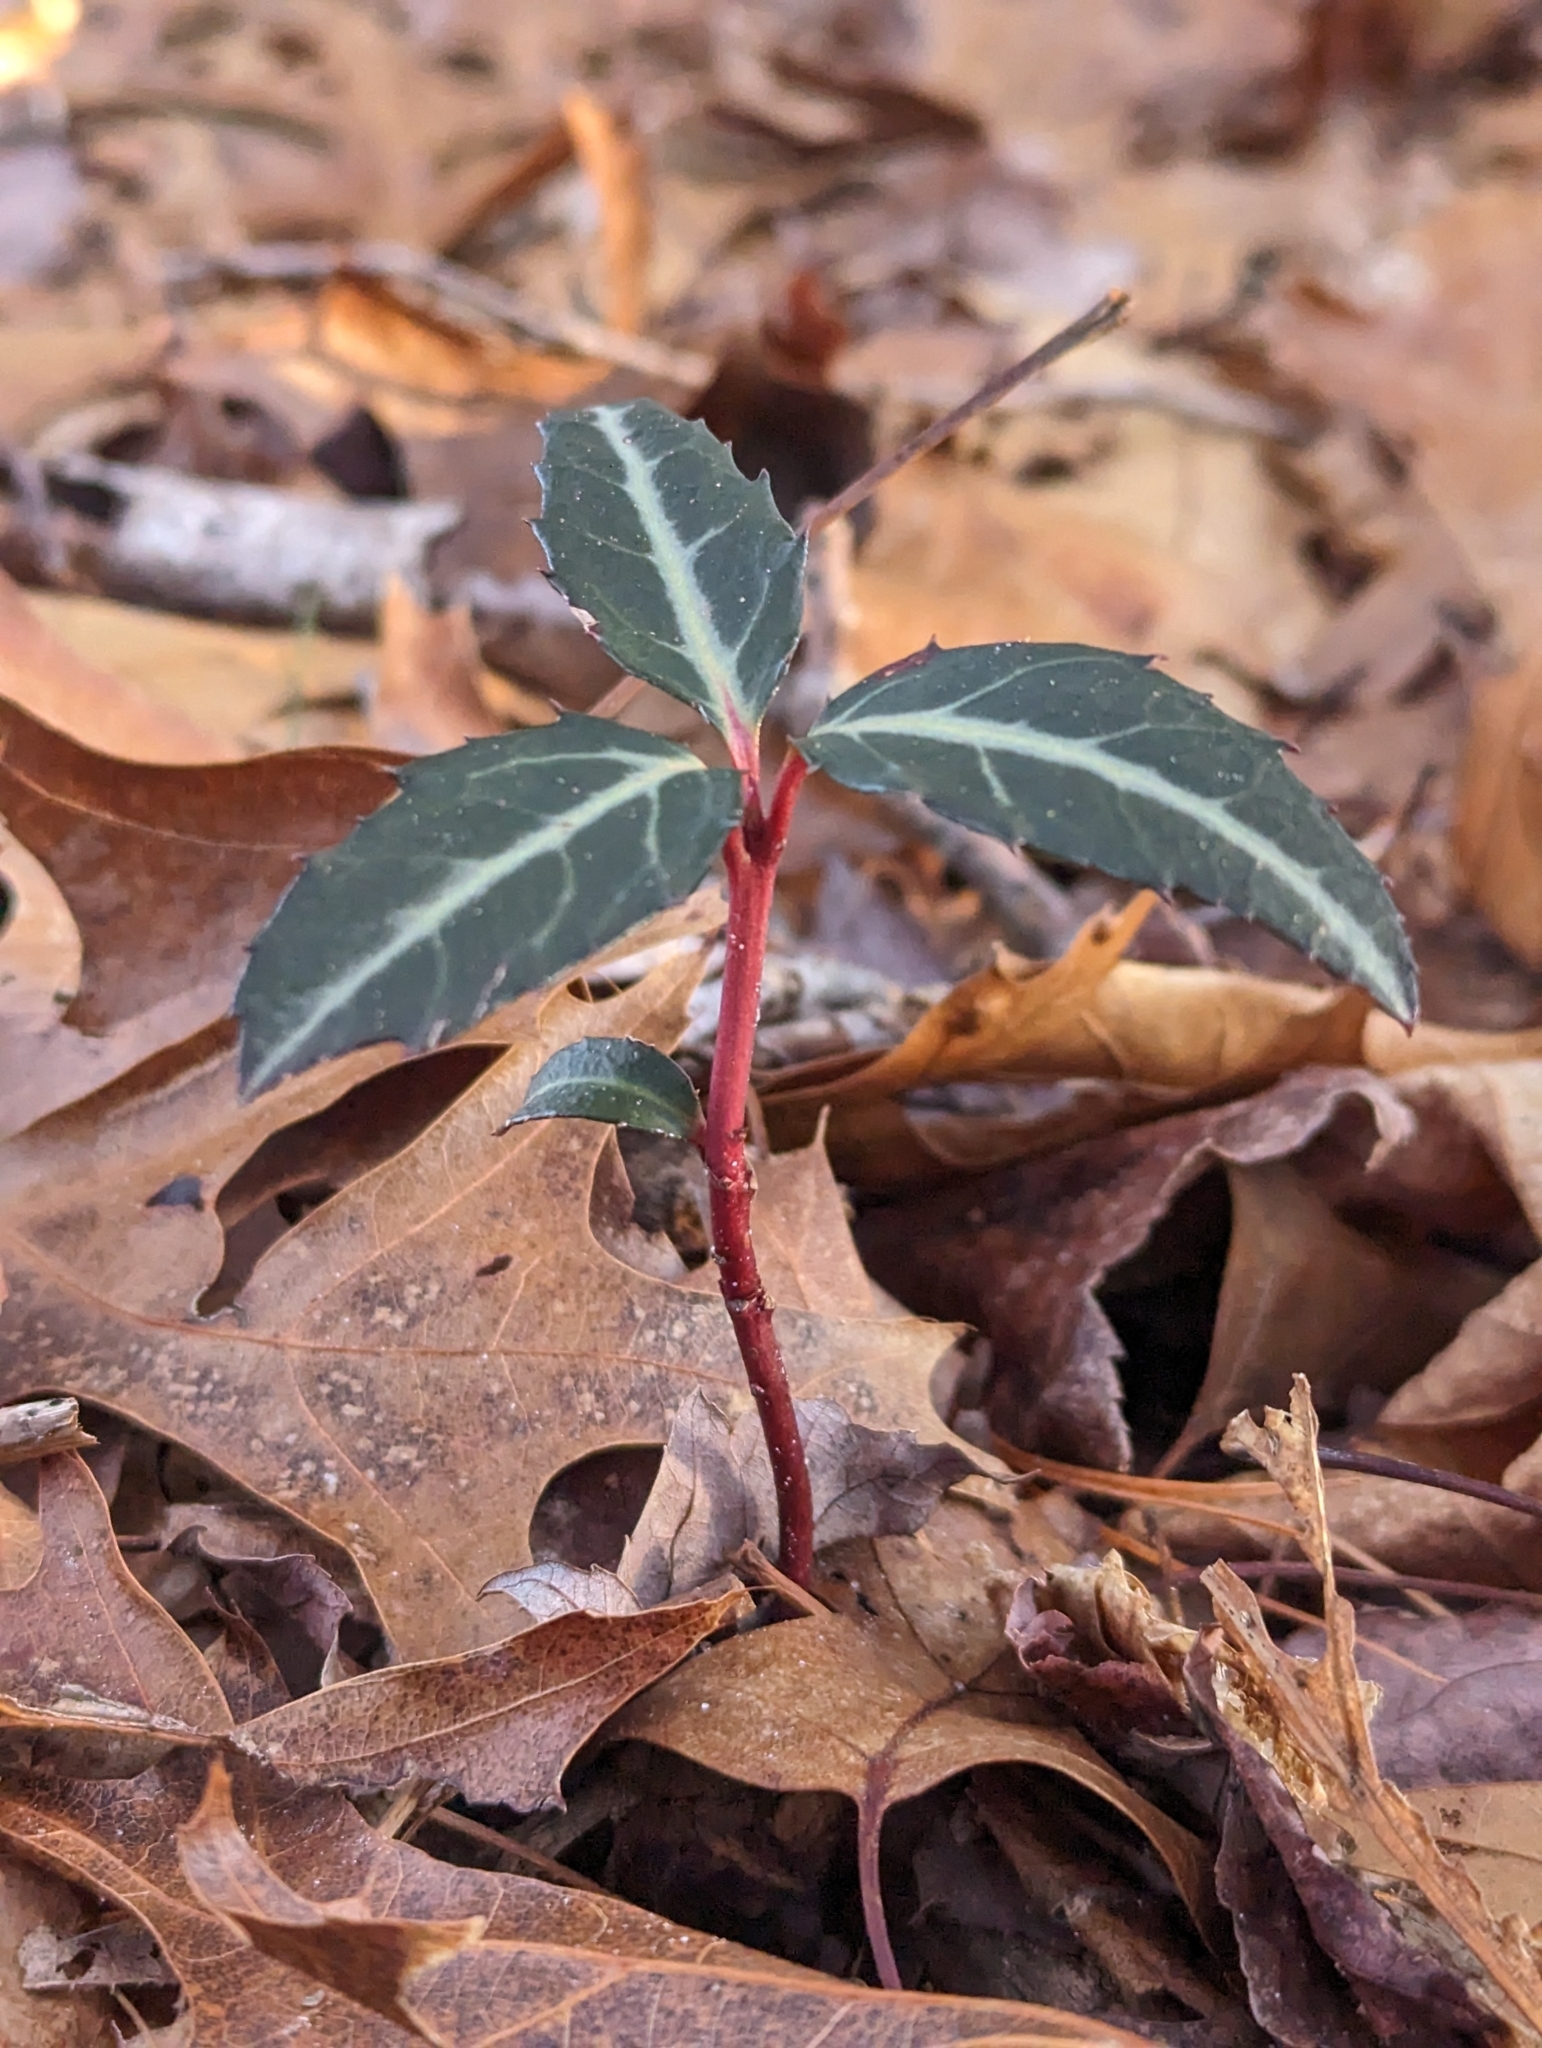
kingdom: Plantae
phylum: Tracheophyta
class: Magnoliopsida
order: Ericales
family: Ericaceae
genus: Chimaphila
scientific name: Chimaphila maculata
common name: Spotted pipsissewa
